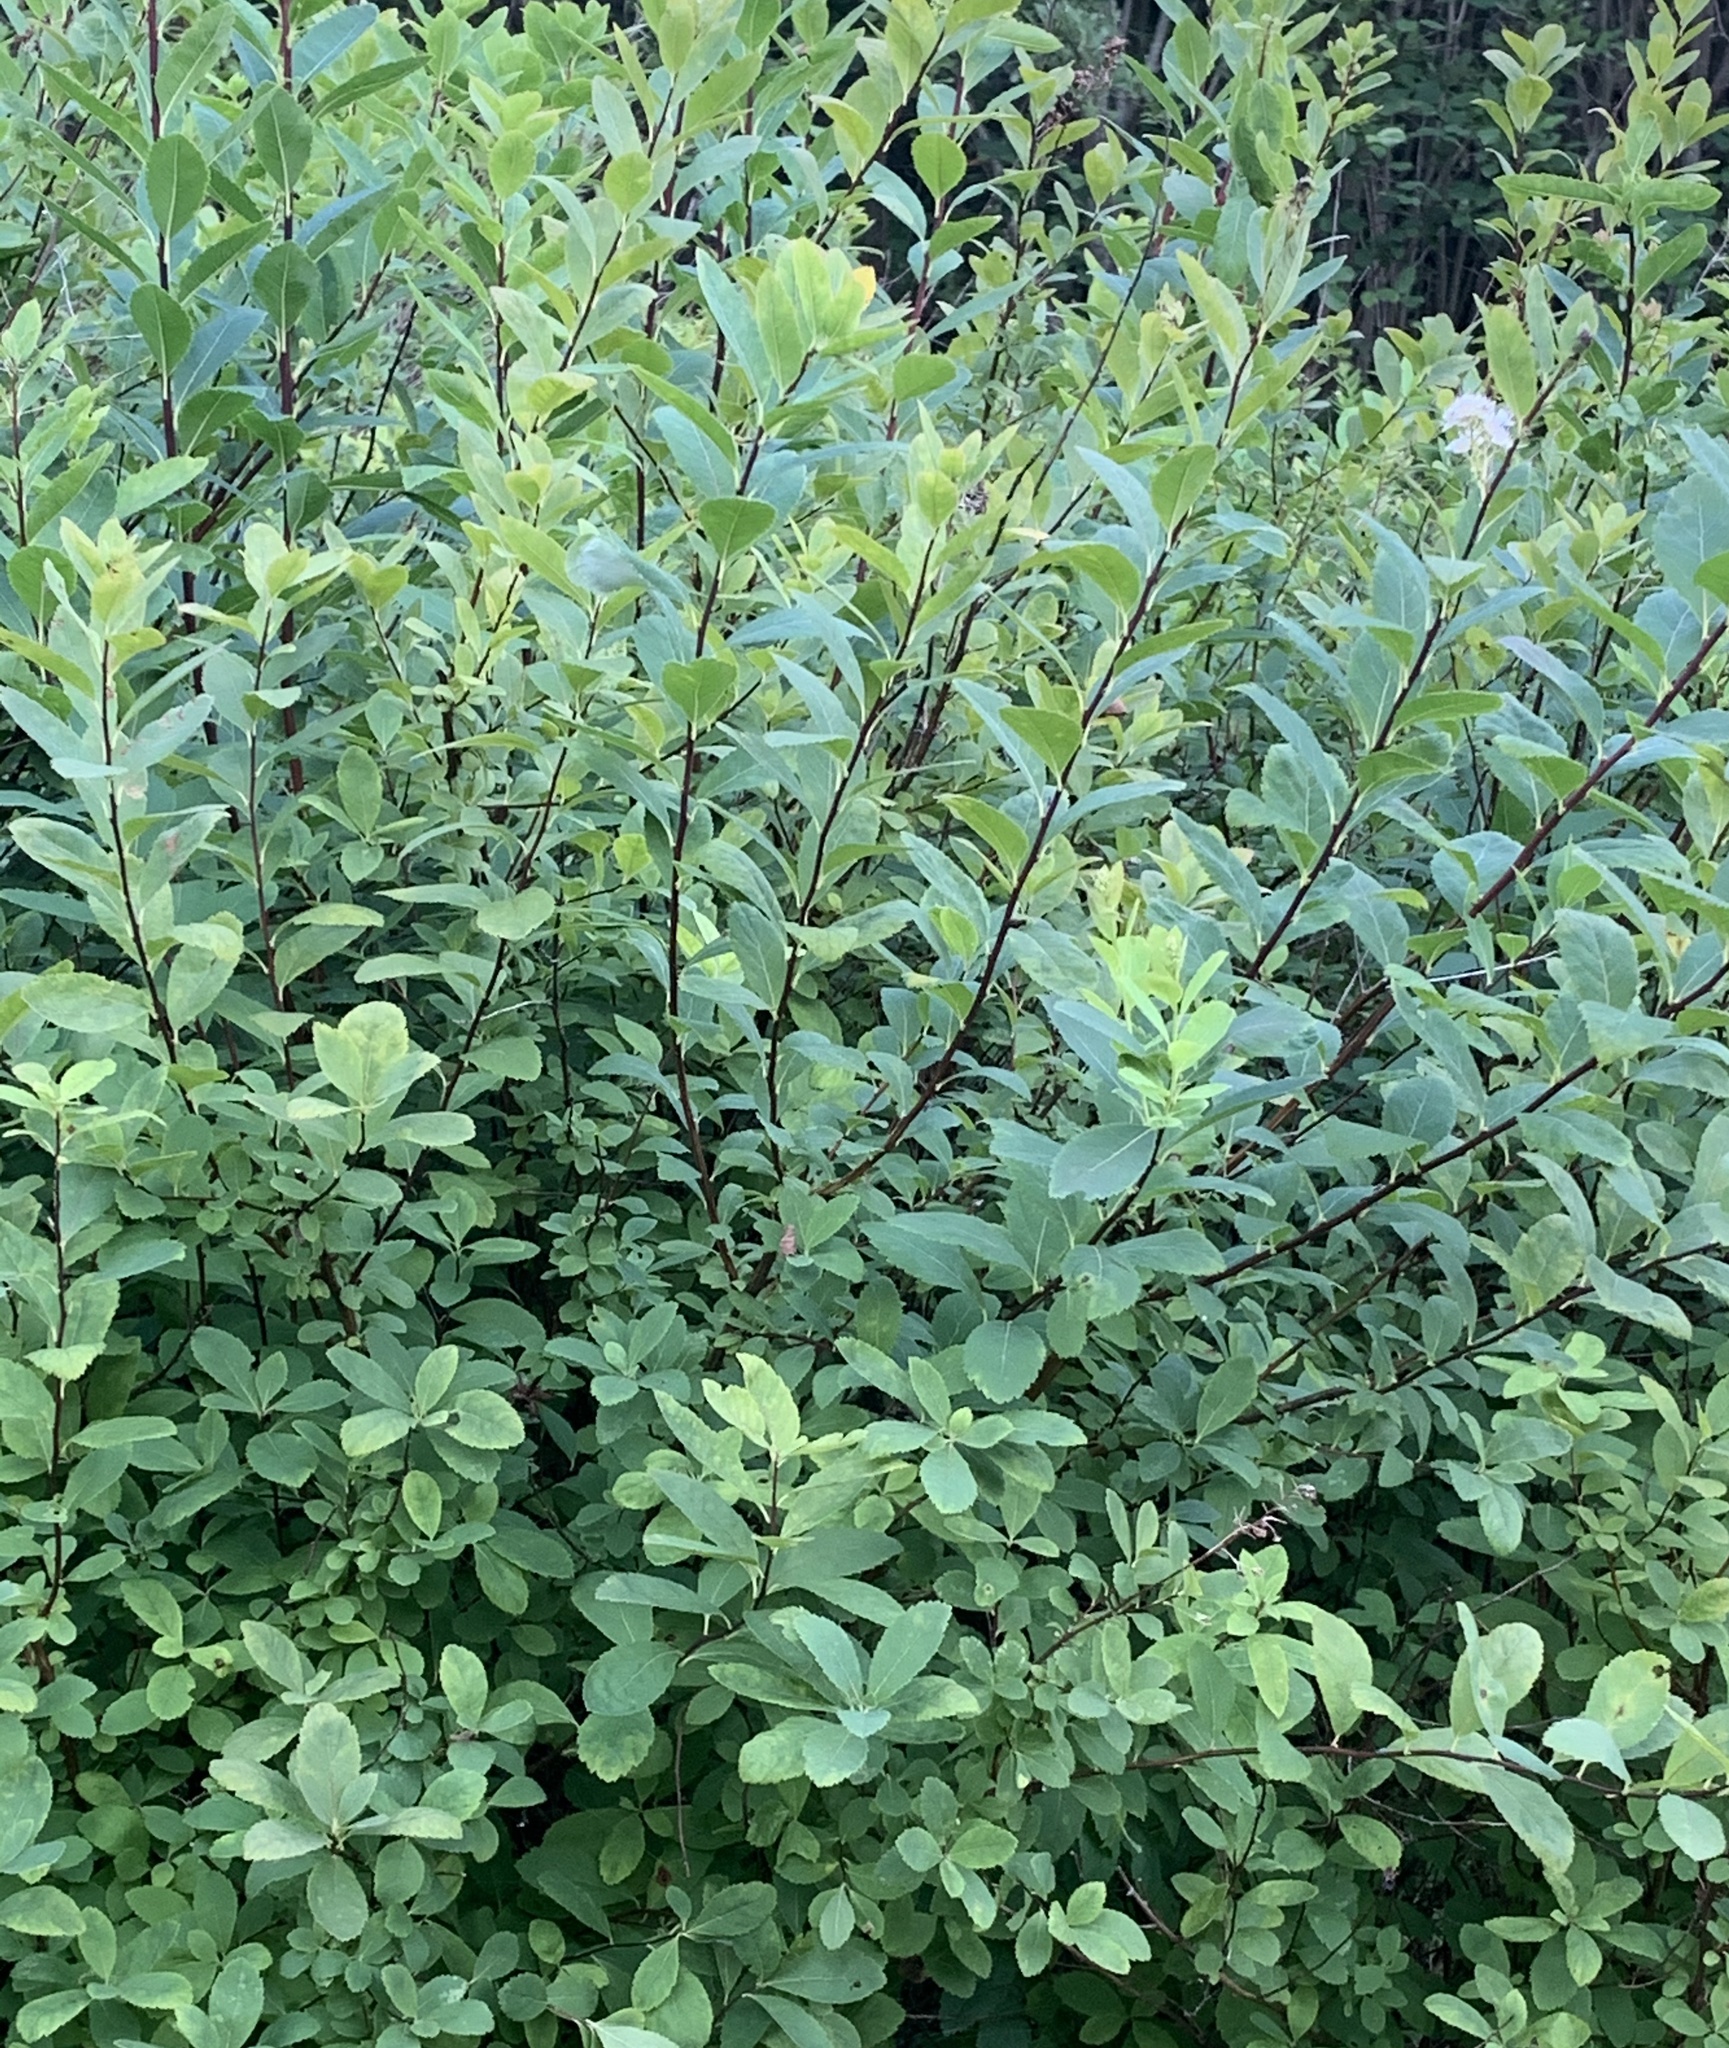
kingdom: Plantae
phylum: Tracheophyta
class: Magnoliopsida
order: Rosales
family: Rosaceae
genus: Spiraea
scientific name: Spiraea alba
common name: Pale bridewort
